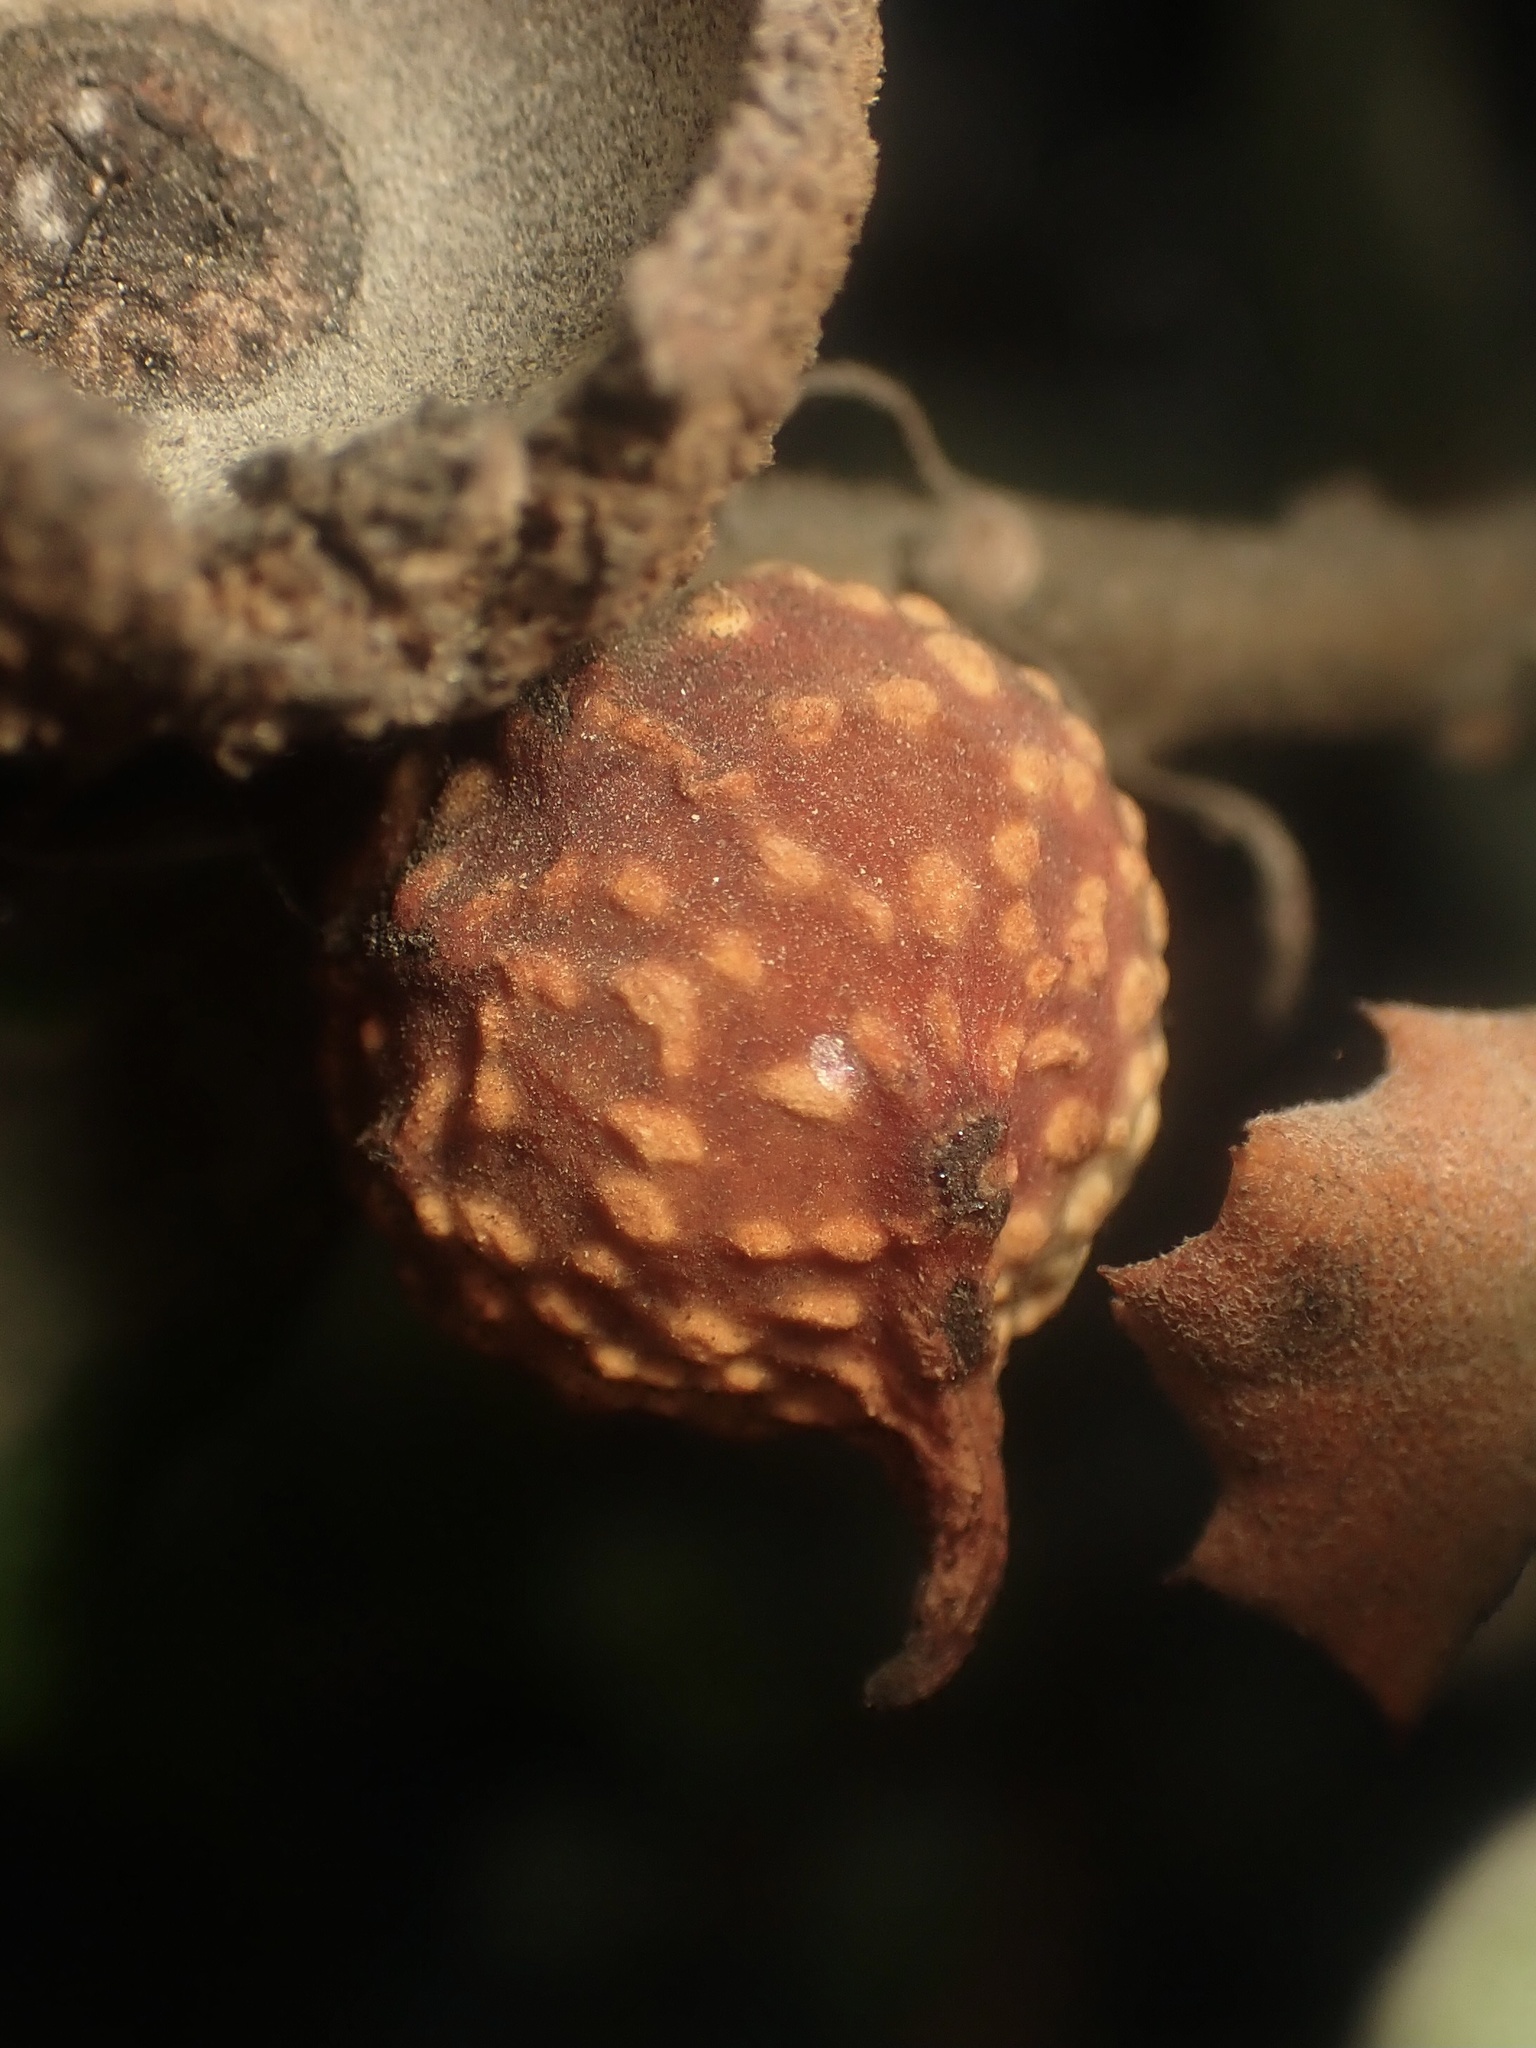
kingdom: Animalia
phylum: Arthropoda
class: Insecta
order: Hymenoptera
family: Cynipidae
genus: Burnettweldia
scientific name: Burnettweldia
